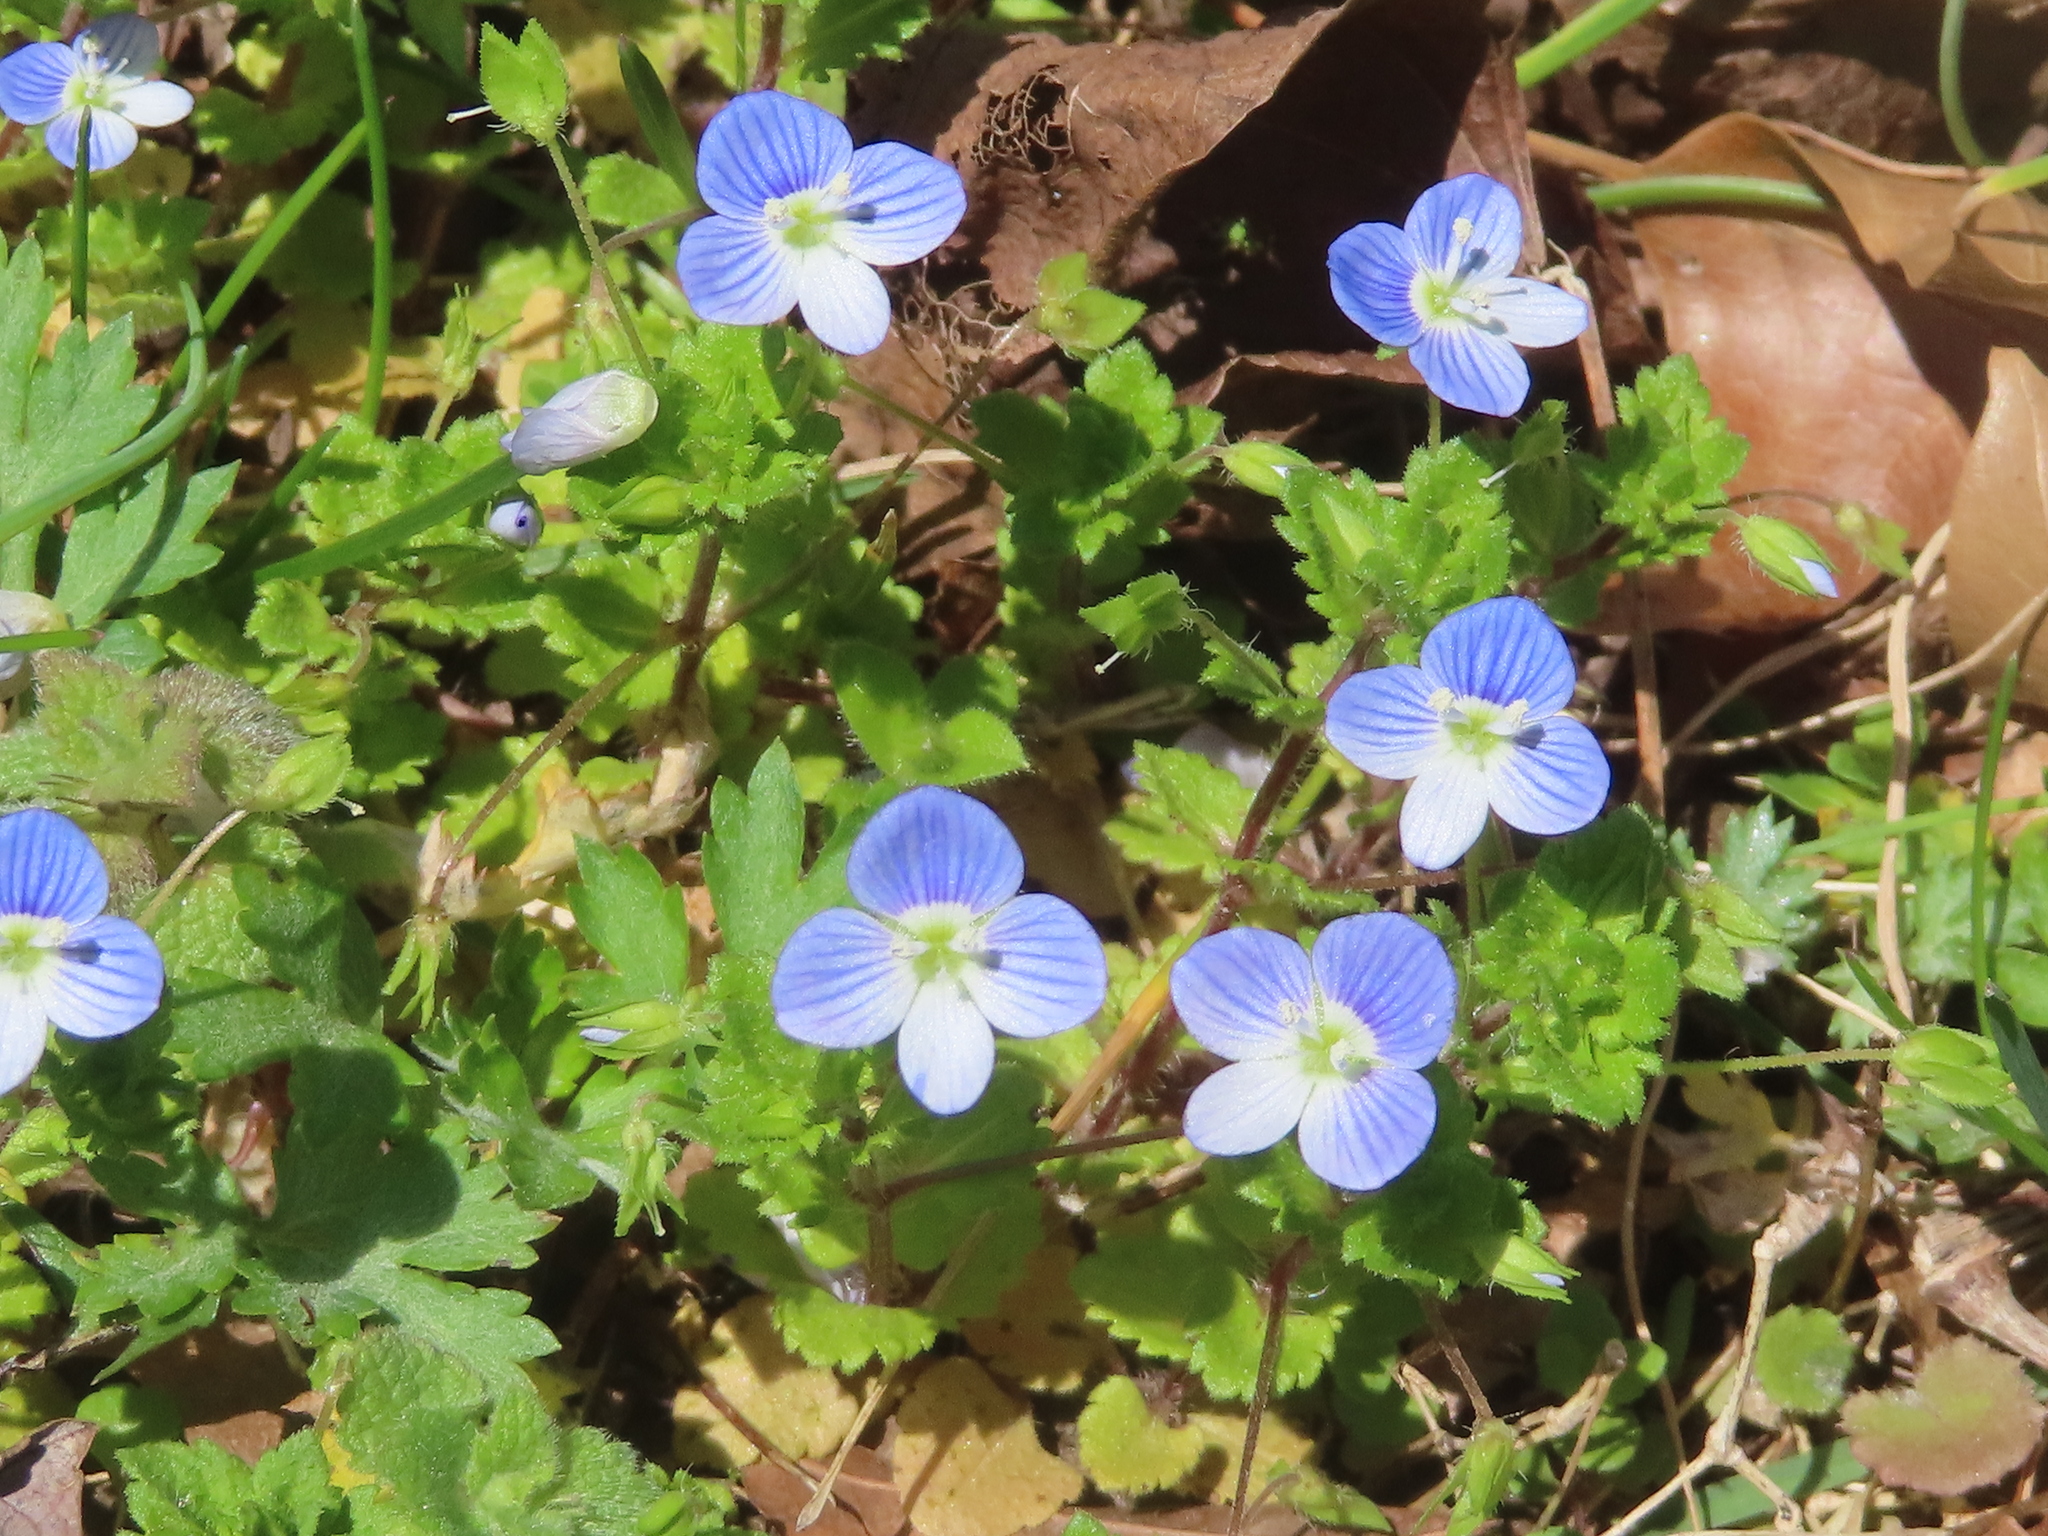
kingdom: Plantae
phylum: Tracheophyta
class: Magnoliopsida
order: Lamiales
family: Plantaginaceae
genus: Veronica
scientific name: Veronica persica
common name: Common field-speedwell
